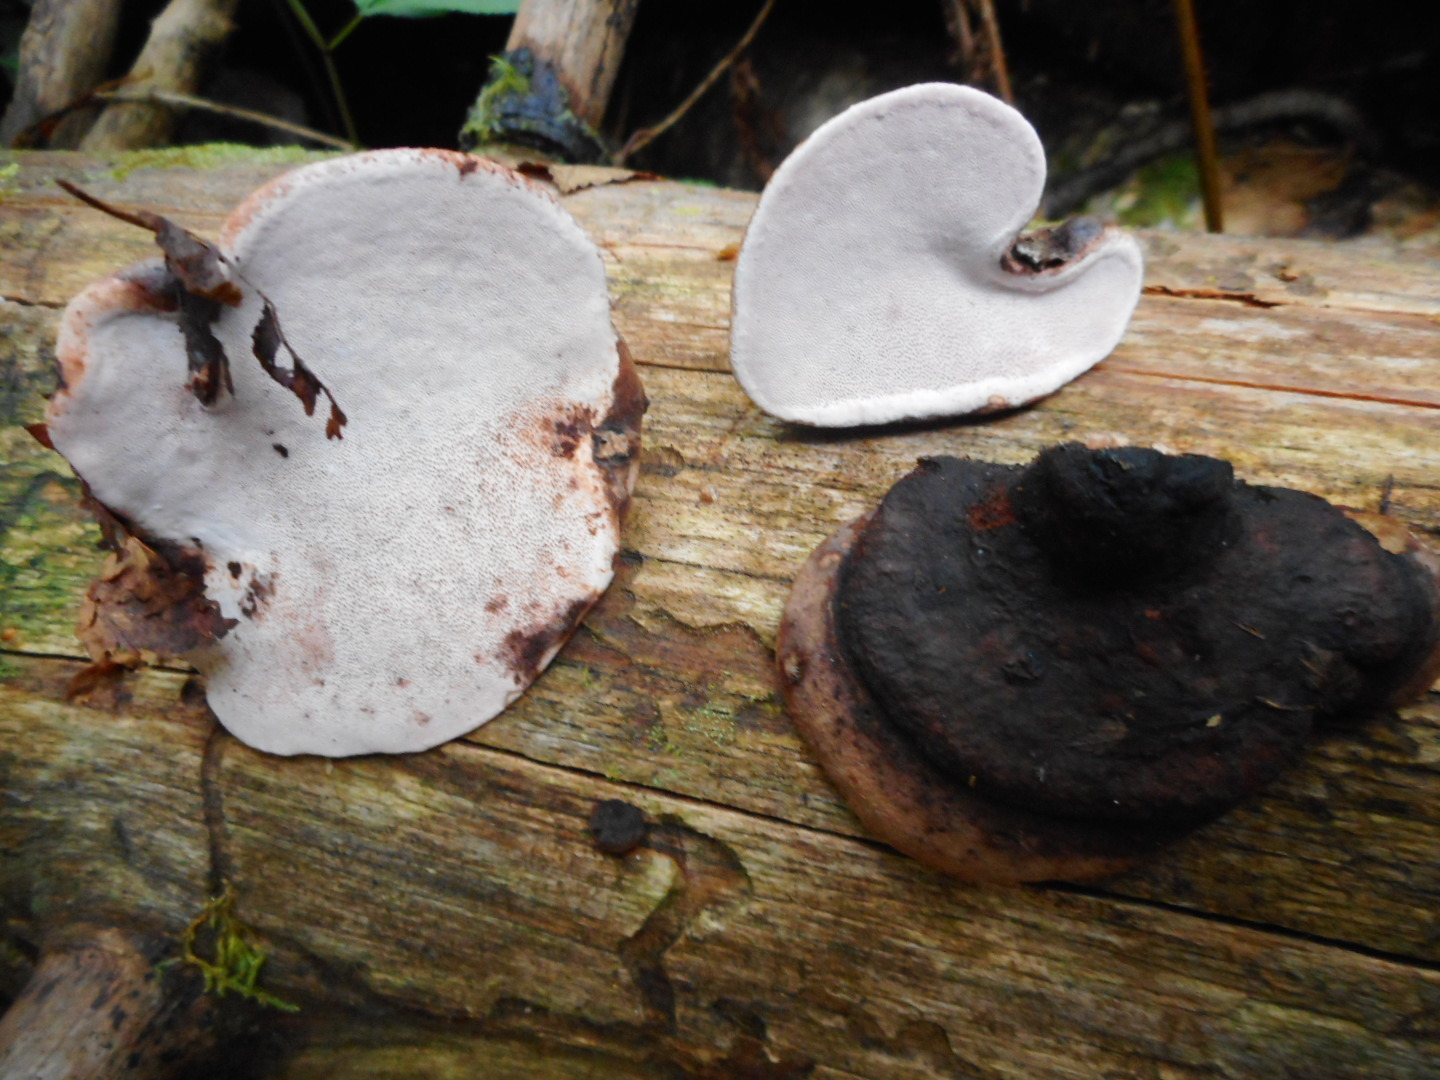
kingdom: Fungi
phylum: Basidiomycota
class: Agaricomycetes
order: Polyporales
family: Fomitopsidaceae
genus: Rhodofomes
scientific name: Rhodofomes roseus
